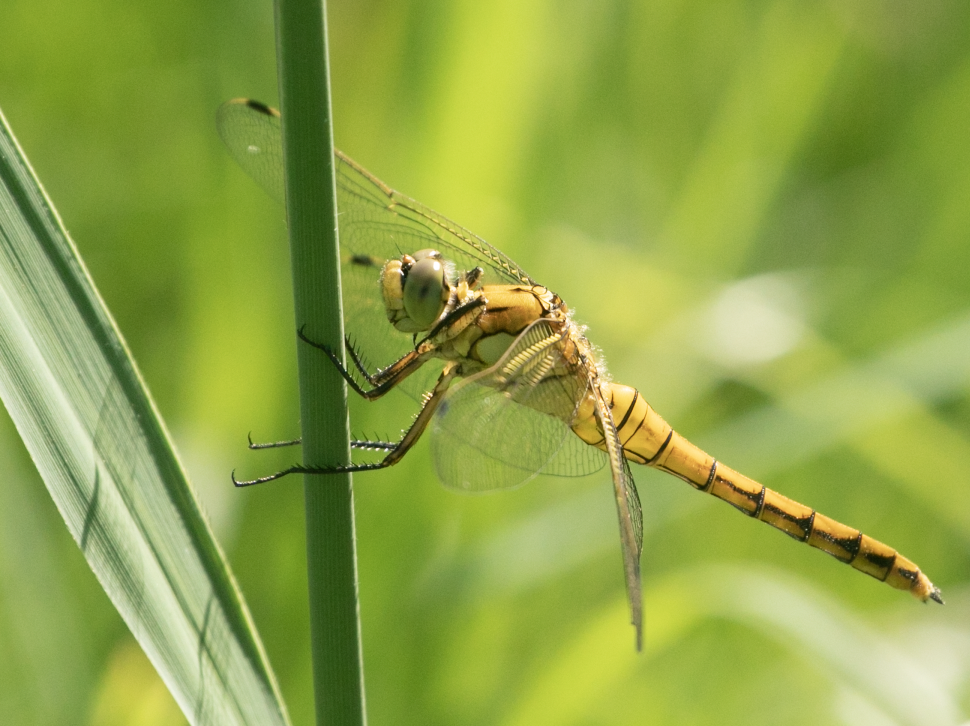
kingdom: Animalia
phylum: Arthropoda
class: Insecta
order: Odonata
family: Libellulidae
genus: Orthetrum
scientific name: Orthetrum cancellatum
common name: Black-tailed skimmer
